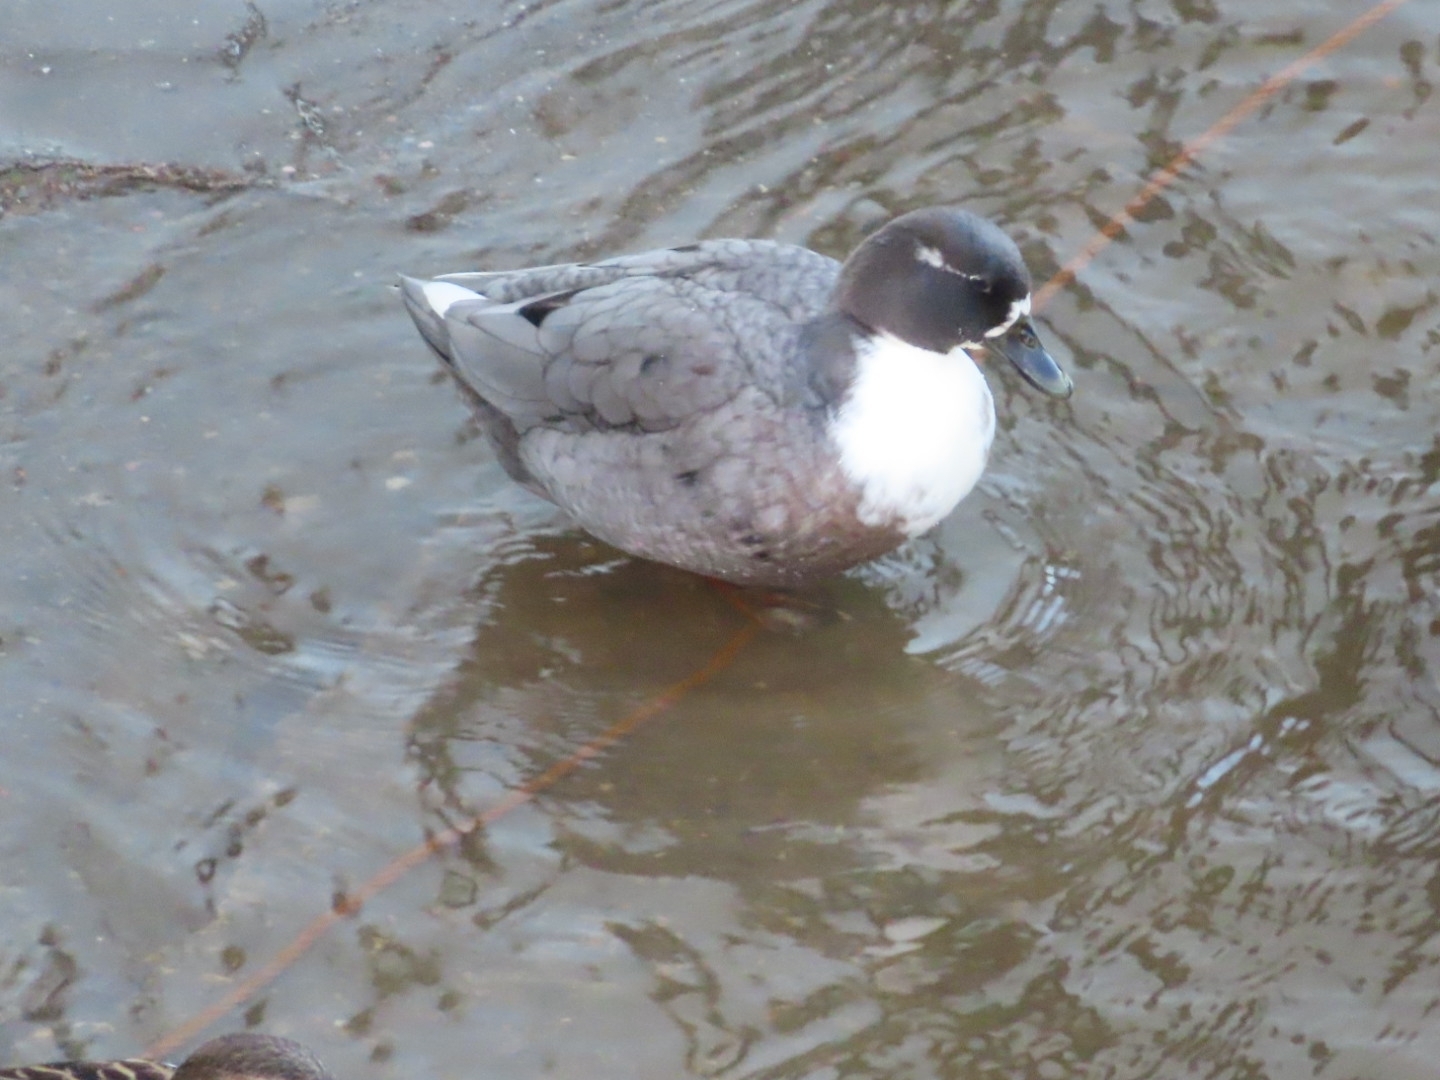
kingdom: Animalia
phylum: Chordata
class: Aves
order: Anseriformes
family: Anatidae
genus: Anas
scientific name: Anas platyrhynchos
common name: Mallard
